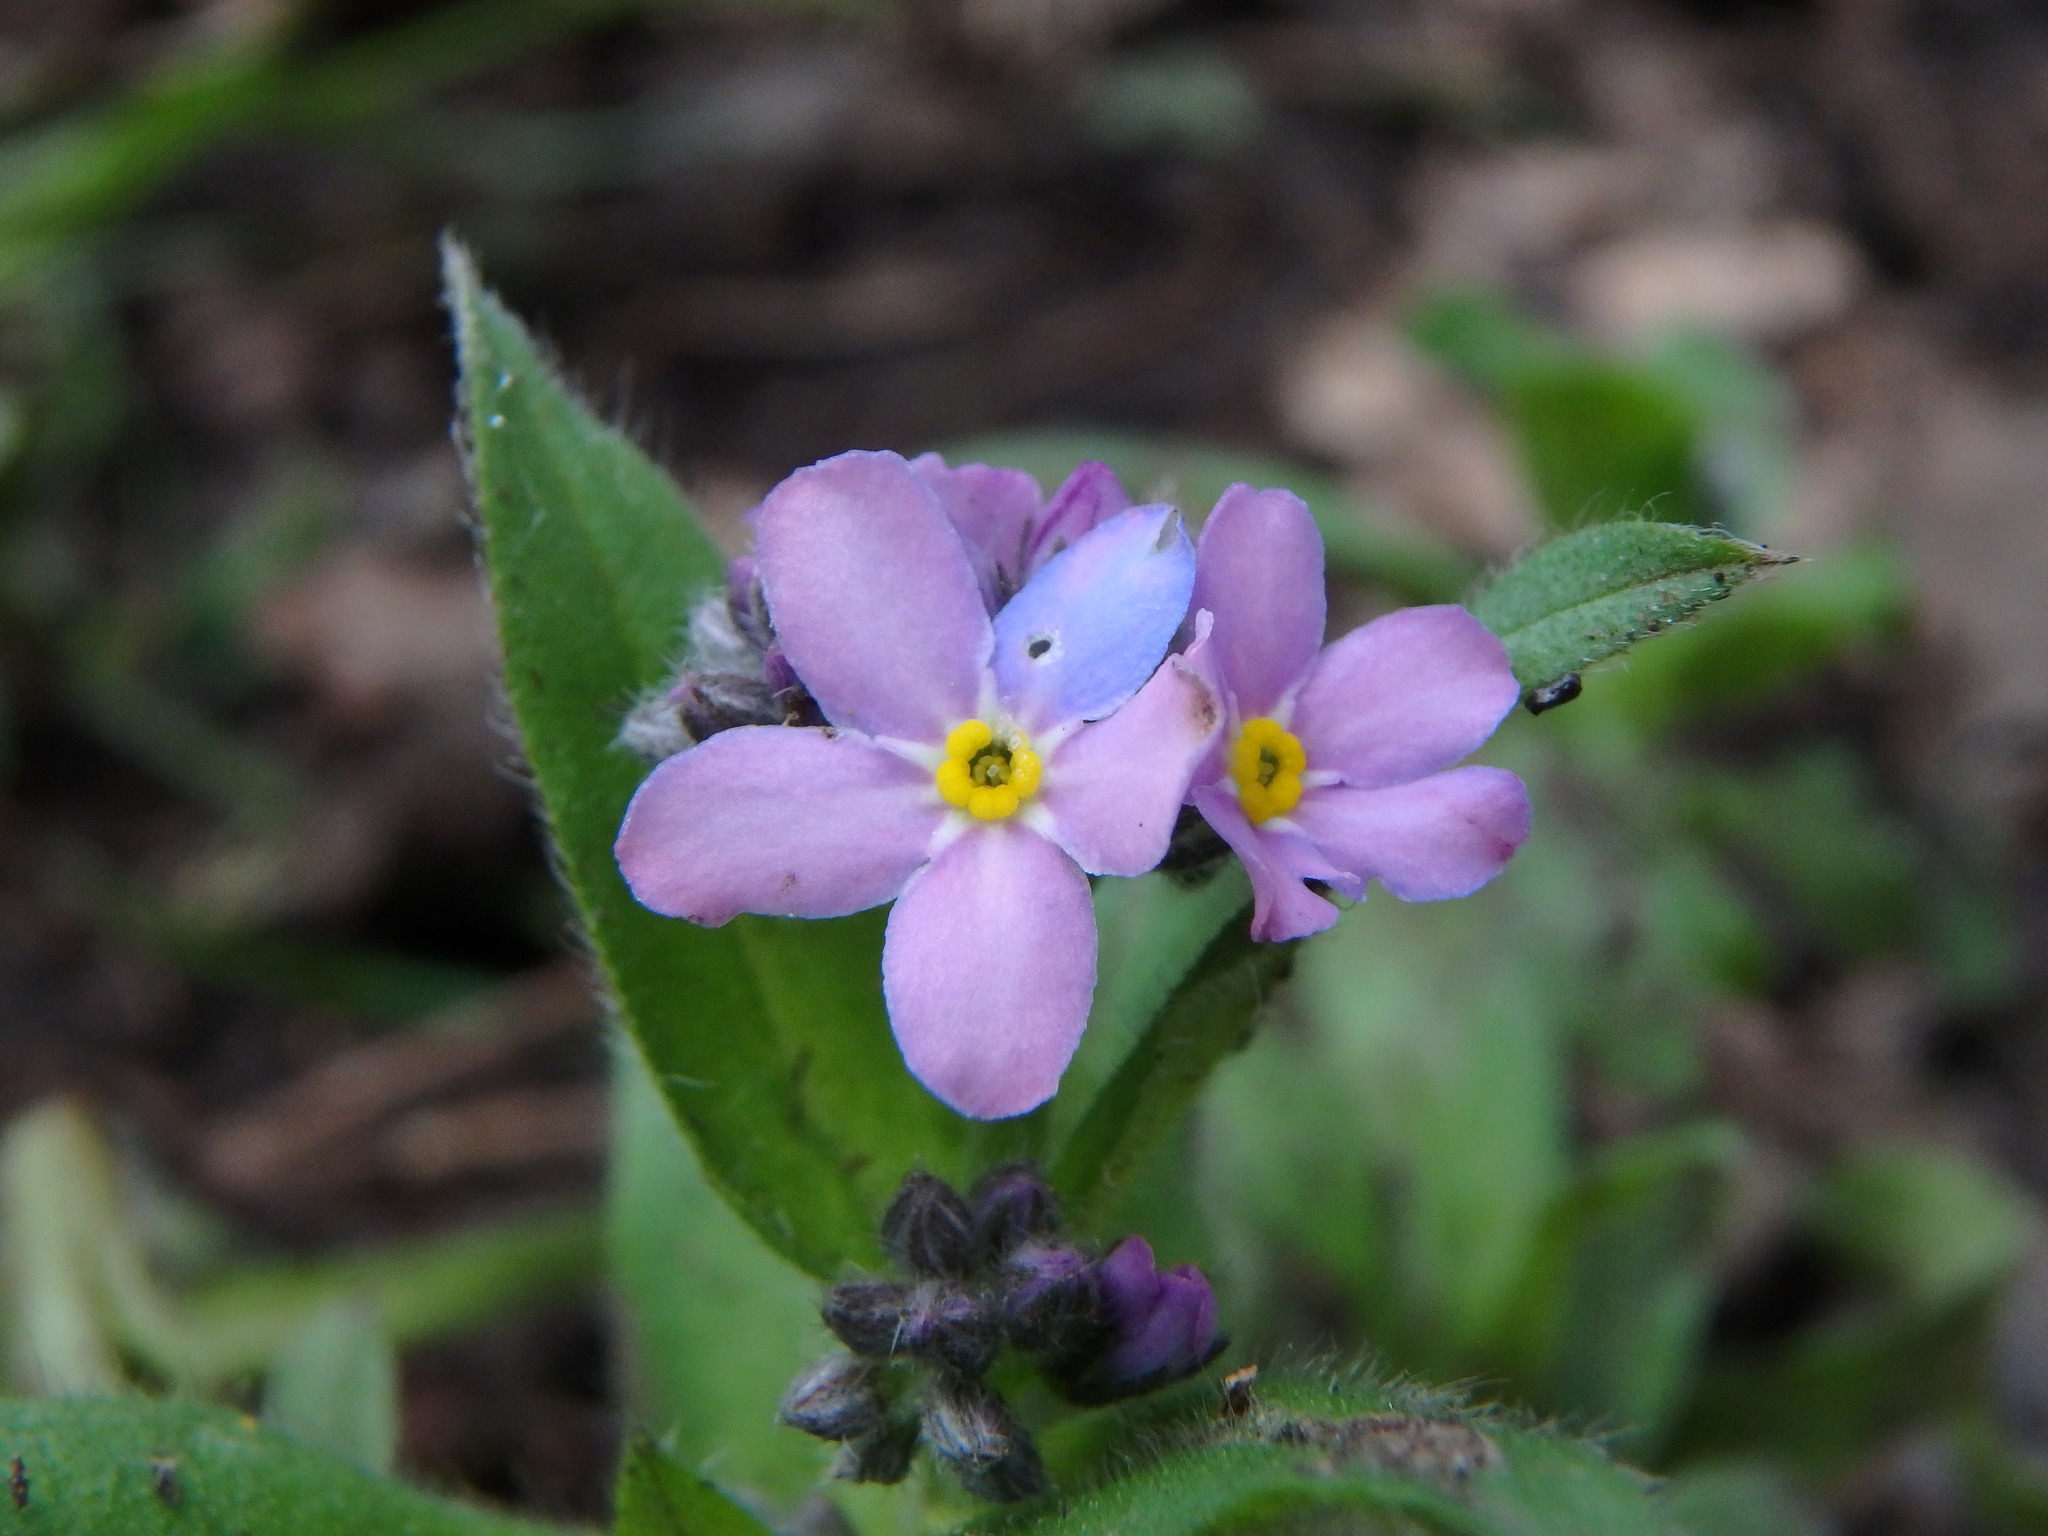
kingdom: Plantae
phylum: Tracheophyta
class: Magnoliopsida
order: Boraginales
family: Boraginaceae
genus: Myosotis
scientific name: Myosotis sylvatica
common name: Wood forget-me-not
